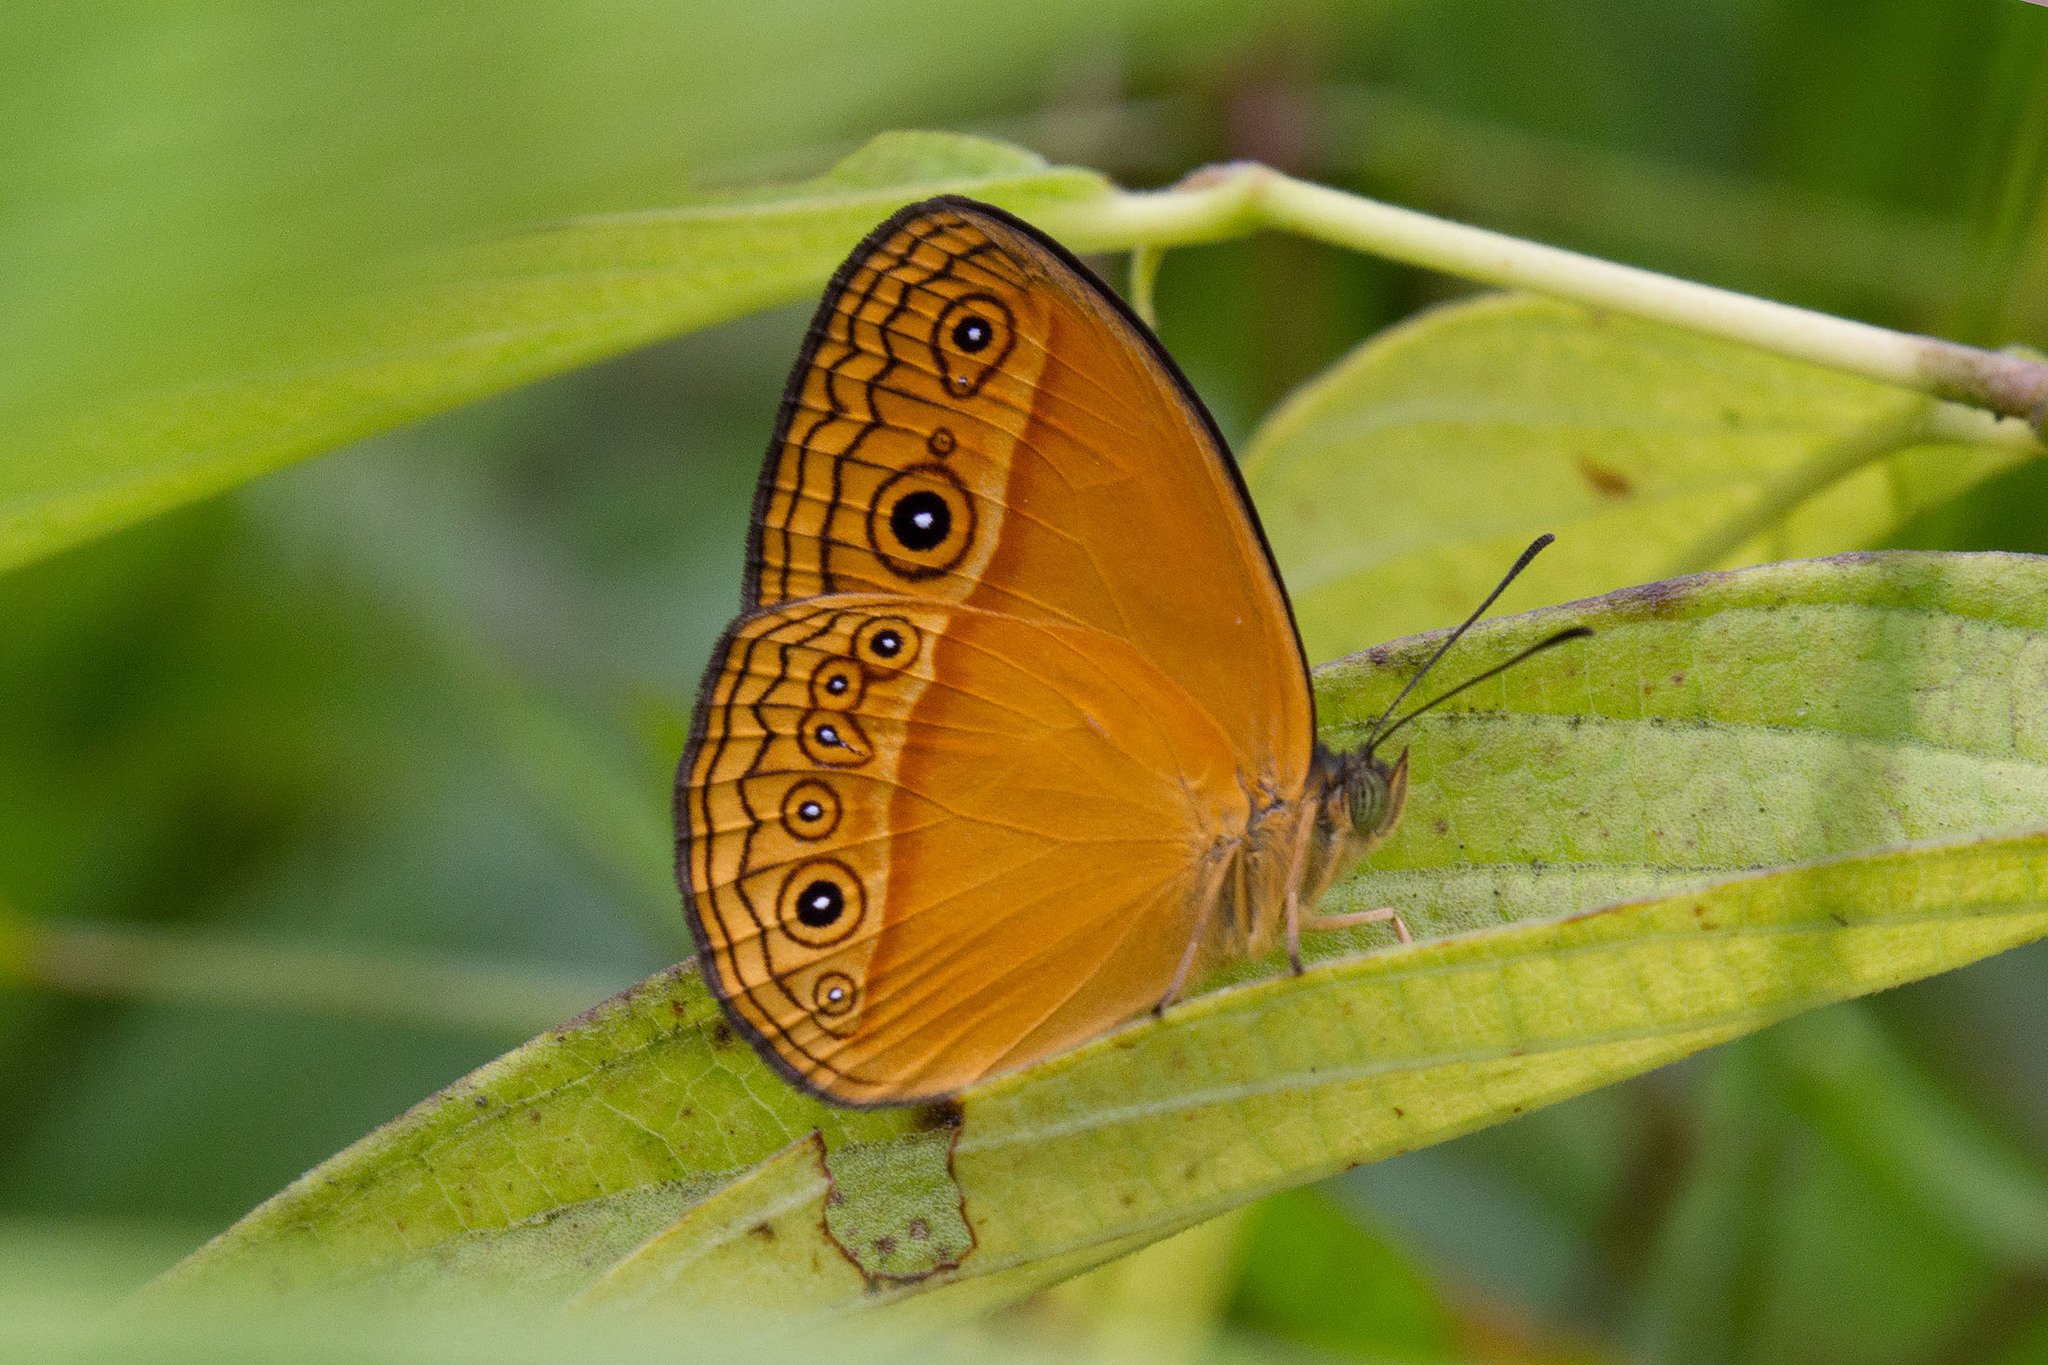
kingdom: Animalia
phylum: Arthropoda
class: Insecta
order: Lepidoptera
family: Nymphalidae
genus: Mycalesis
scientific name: Mycalesis phidon
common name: Hewitson's bushbrown
